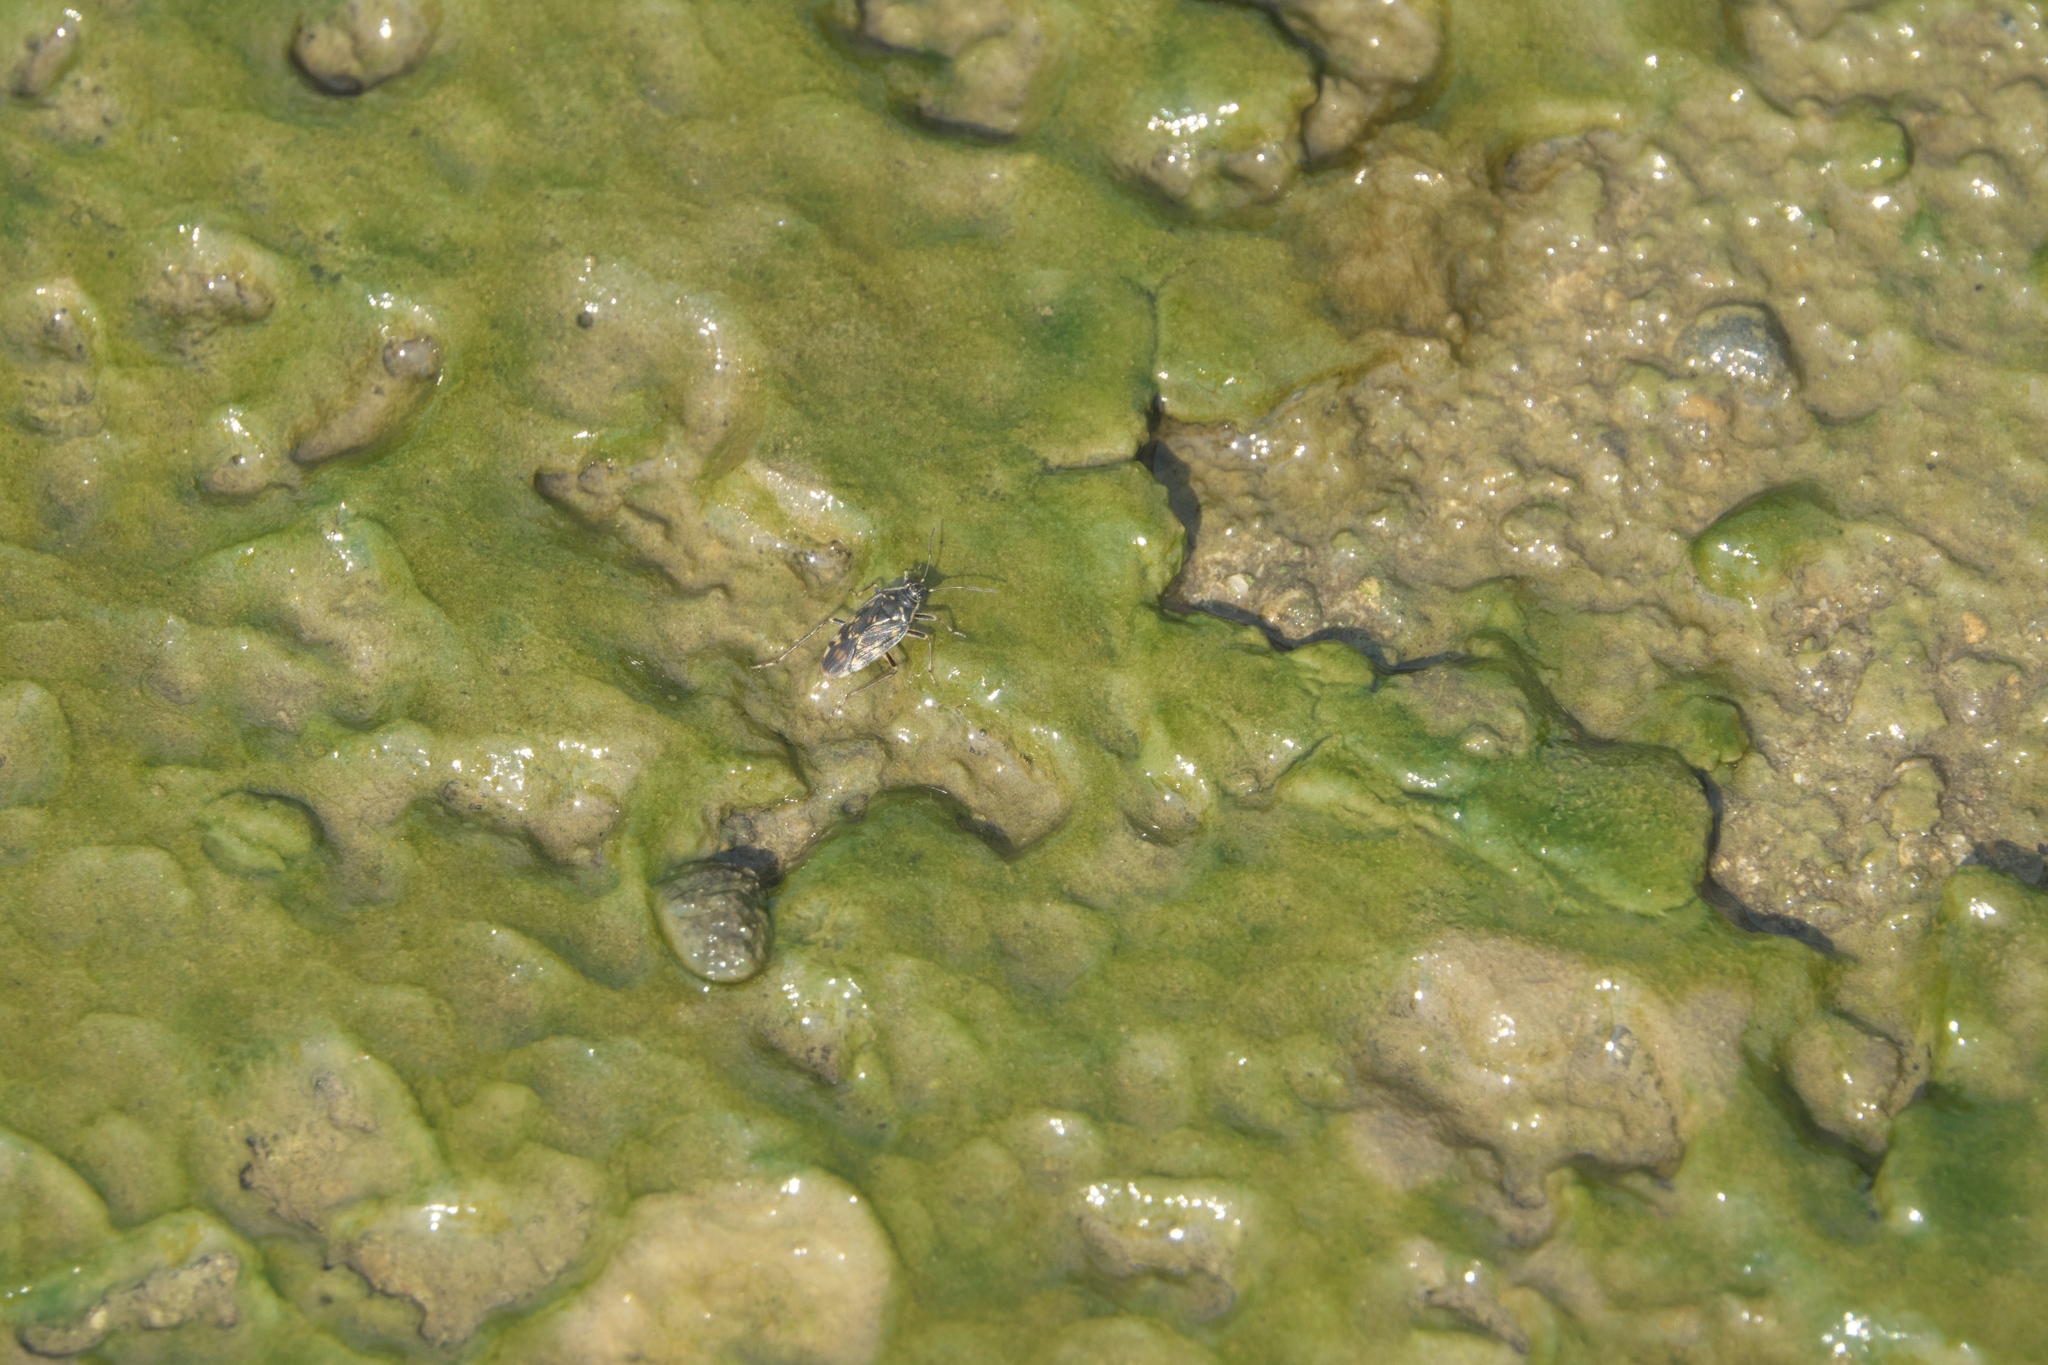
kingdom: Animalia
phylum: Arthropoda
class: Insecta
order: Hemiptera
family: Saldidae
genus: Pentacora
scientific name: Pentacora ligata
